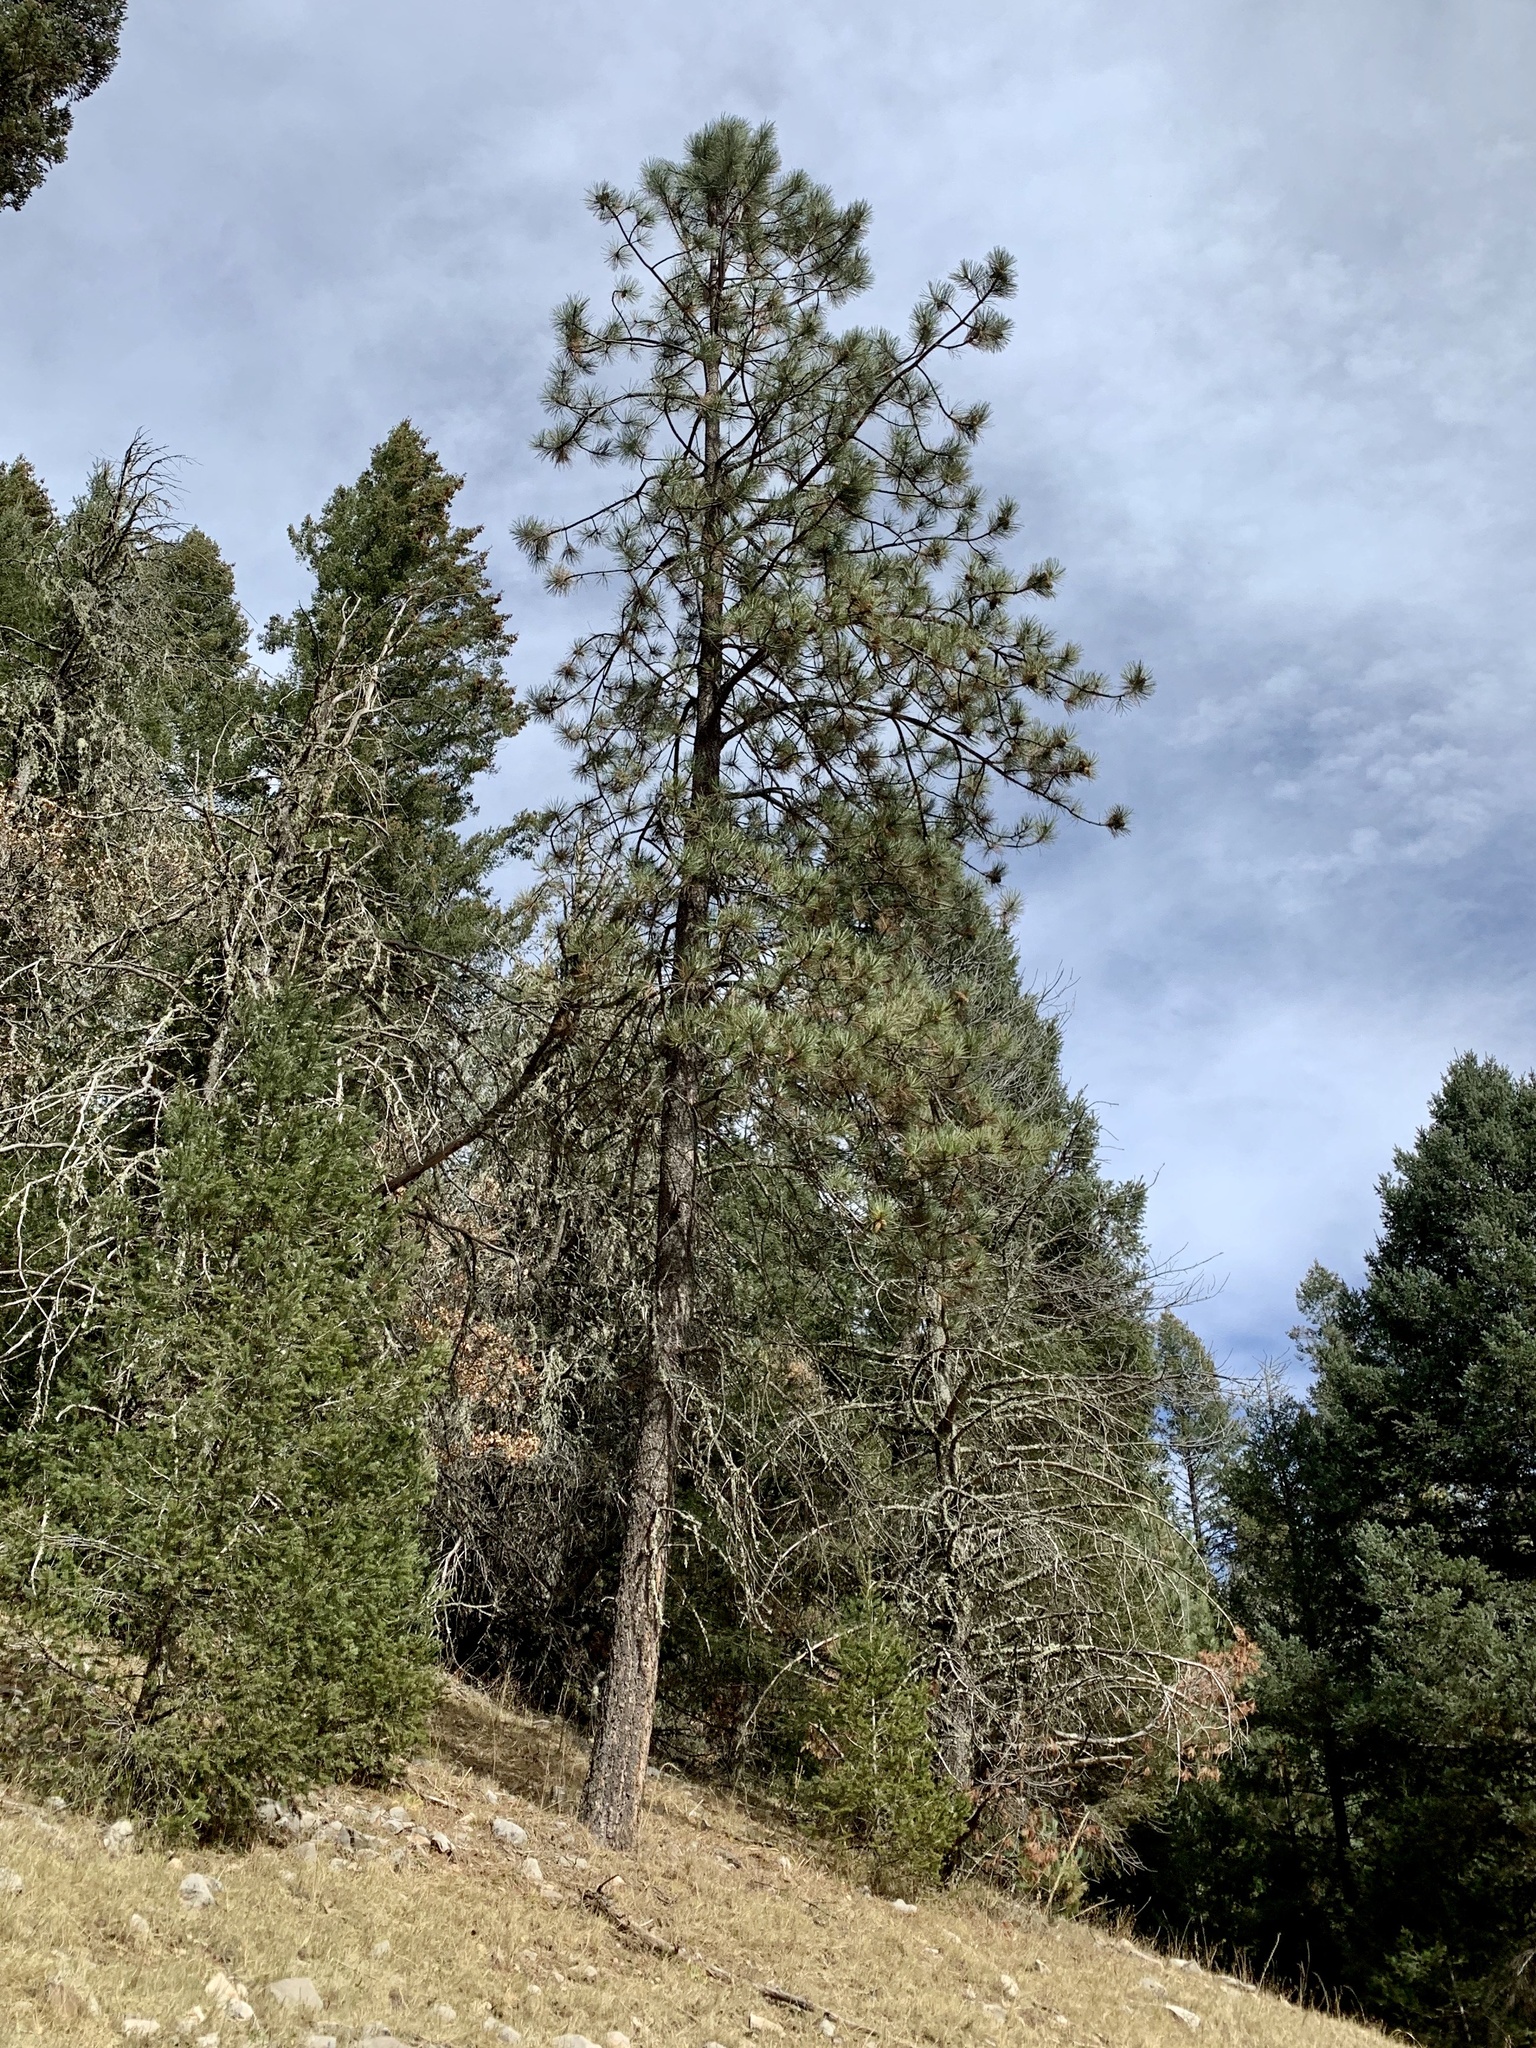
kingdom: Plantae
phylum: Tracheophyta
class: Pinopsida
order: Pinales
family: Pinaceae
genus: Pinus
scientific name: Pinus ponderosa
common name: Western yellow-pine
